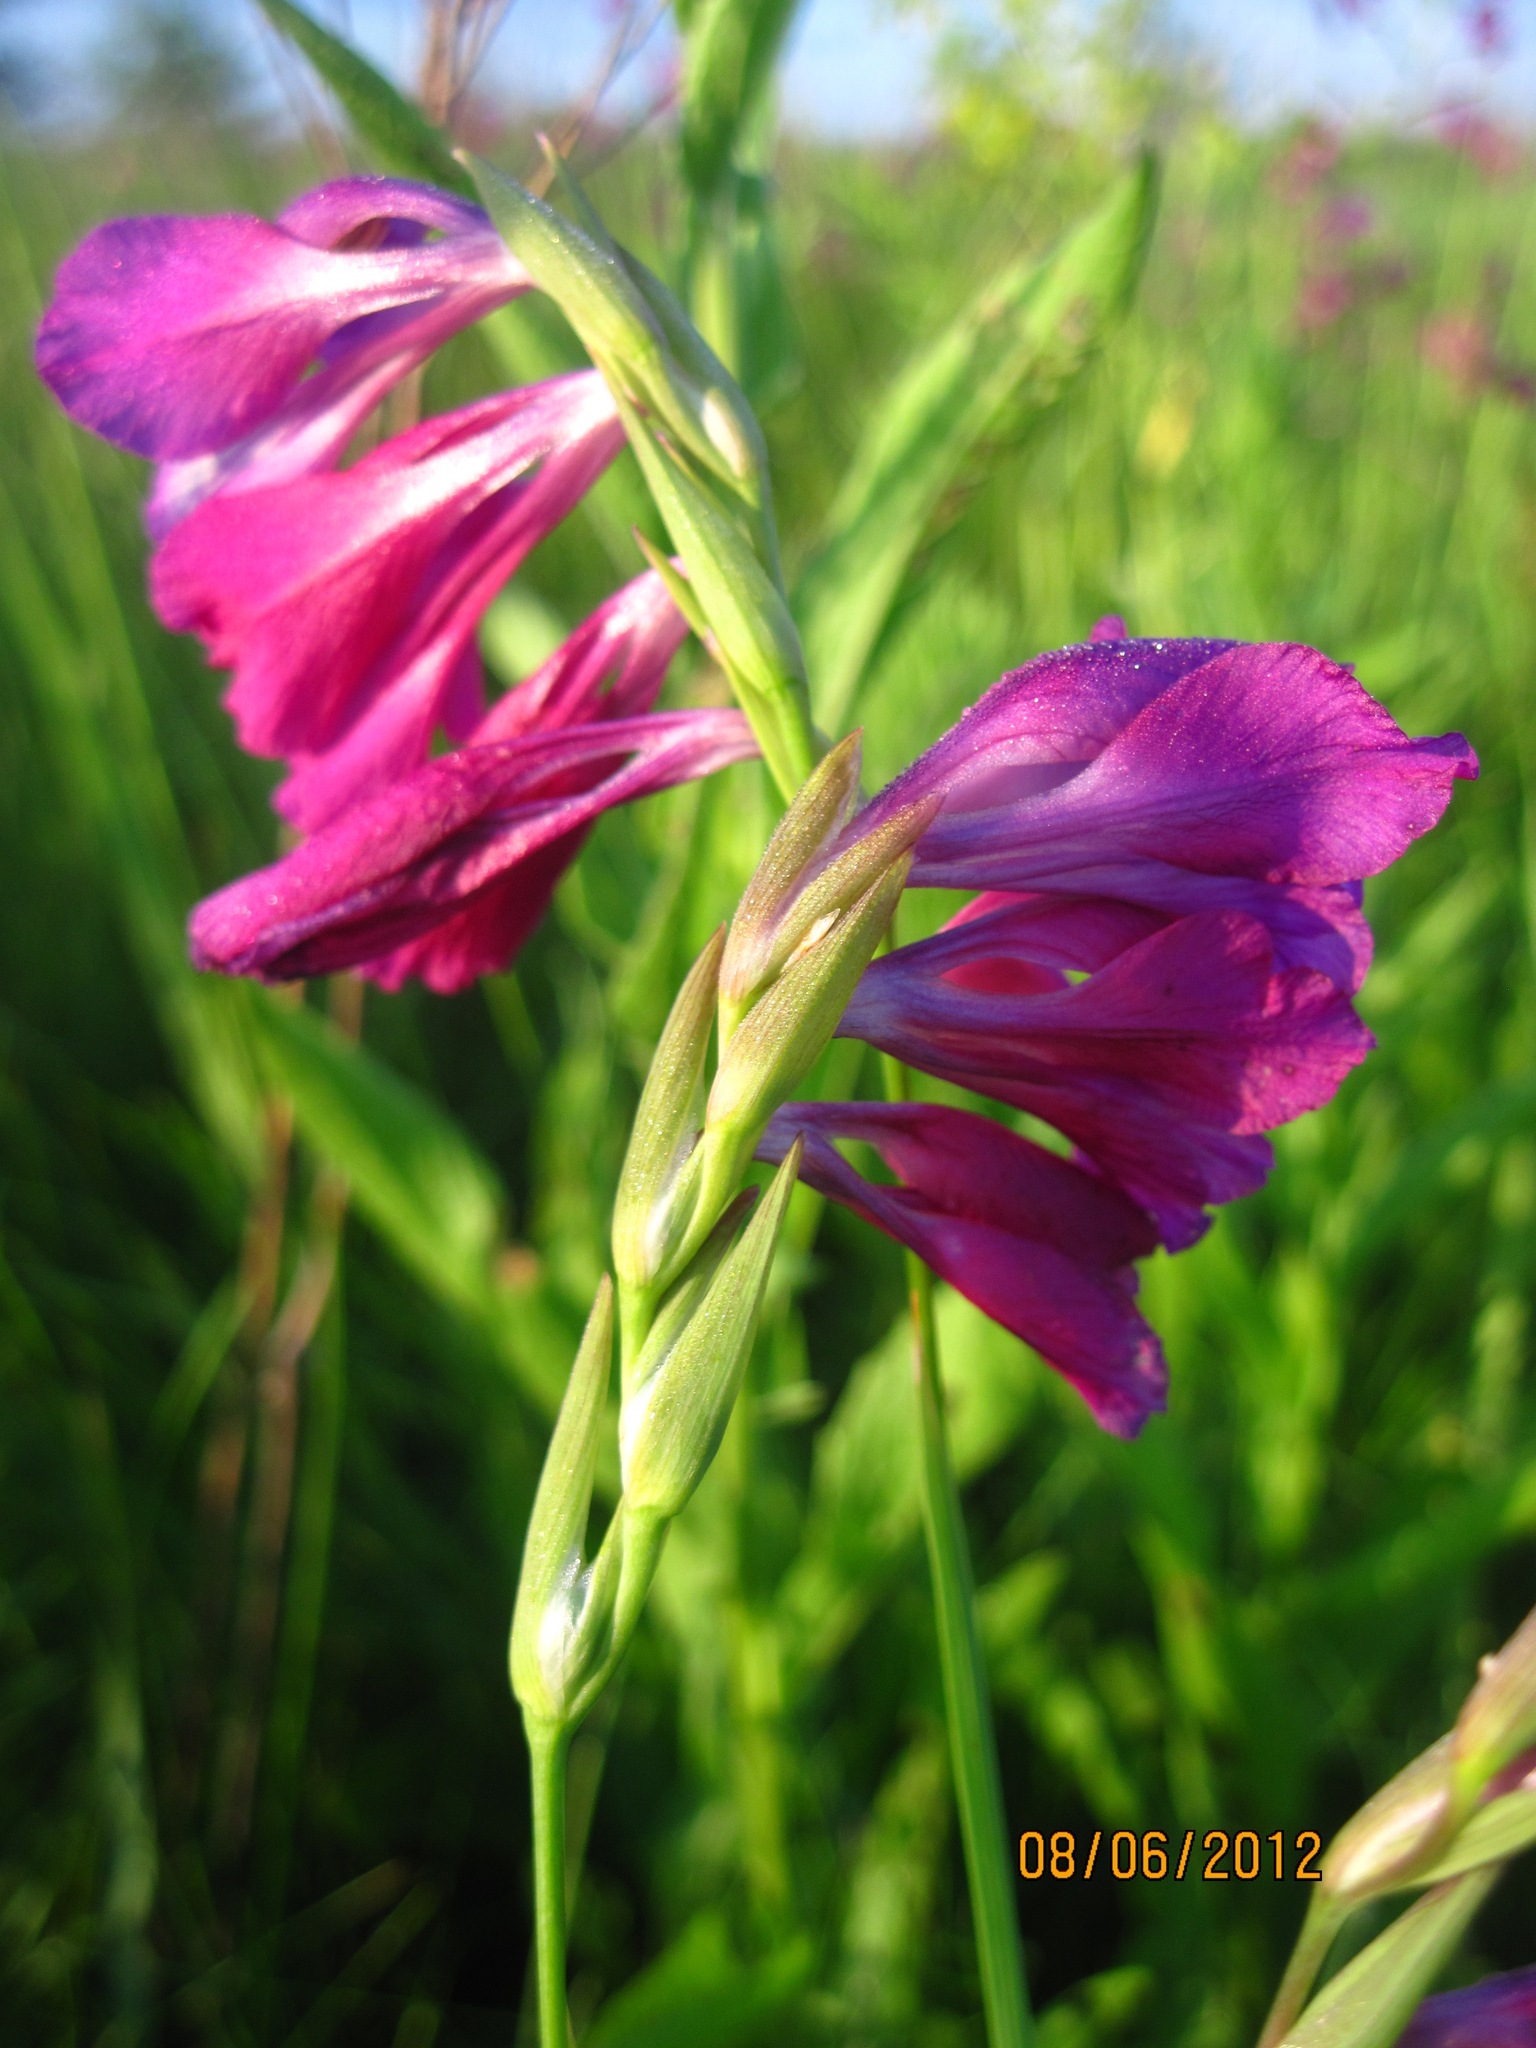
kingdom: Plantae
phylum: Tracheophyta
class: Liliopsida
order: Asparagales
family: Iridaceae
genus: Gladiolus
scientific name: Gladiolus tenuis
